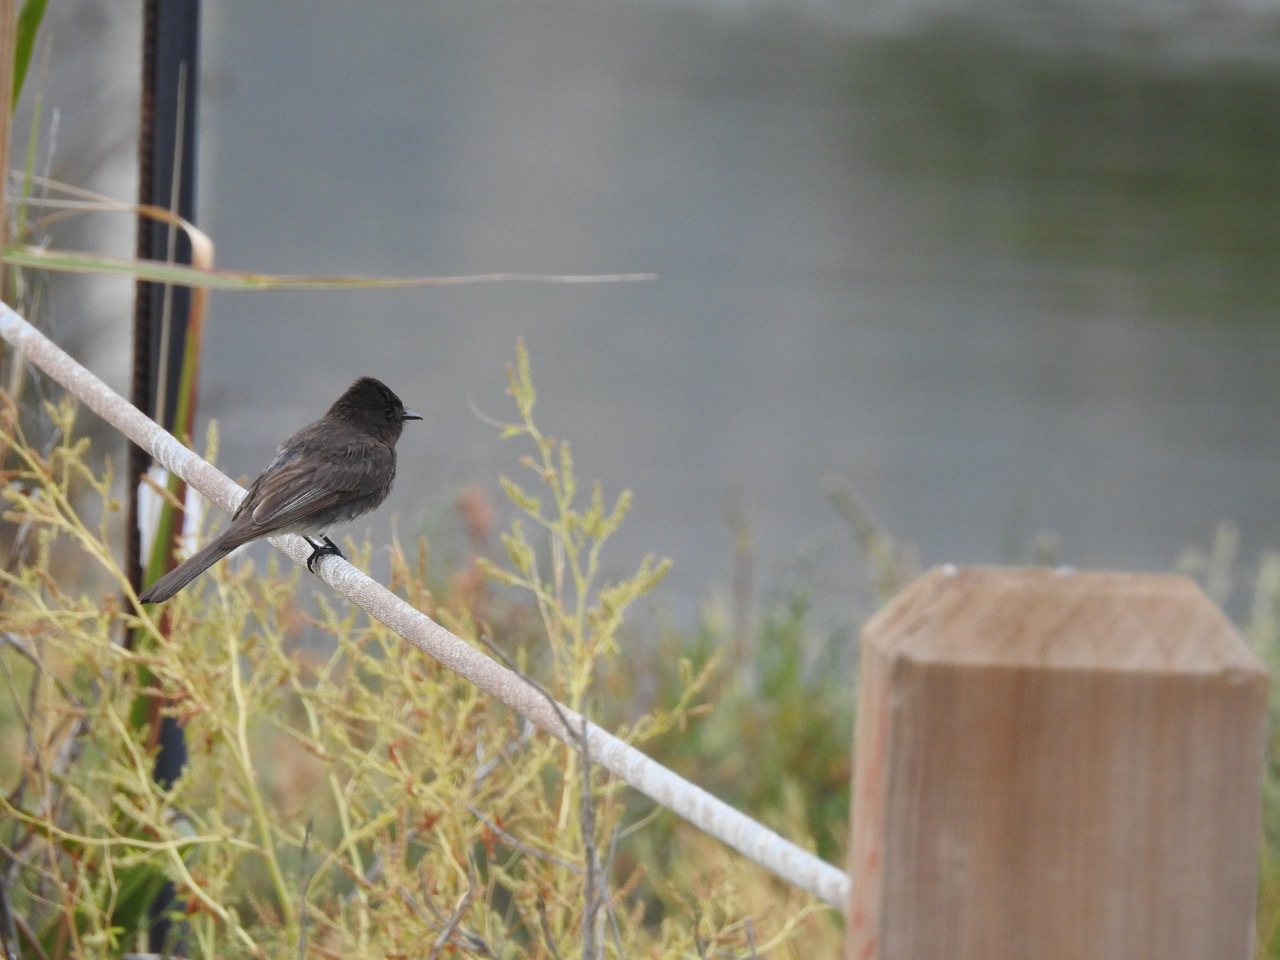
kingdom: Animalia
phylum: Chordata
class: Aves
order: Passeriformes
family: Tyrannidae
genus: Sayornis
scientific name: Sayornis nigricans
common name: Black phoebe
